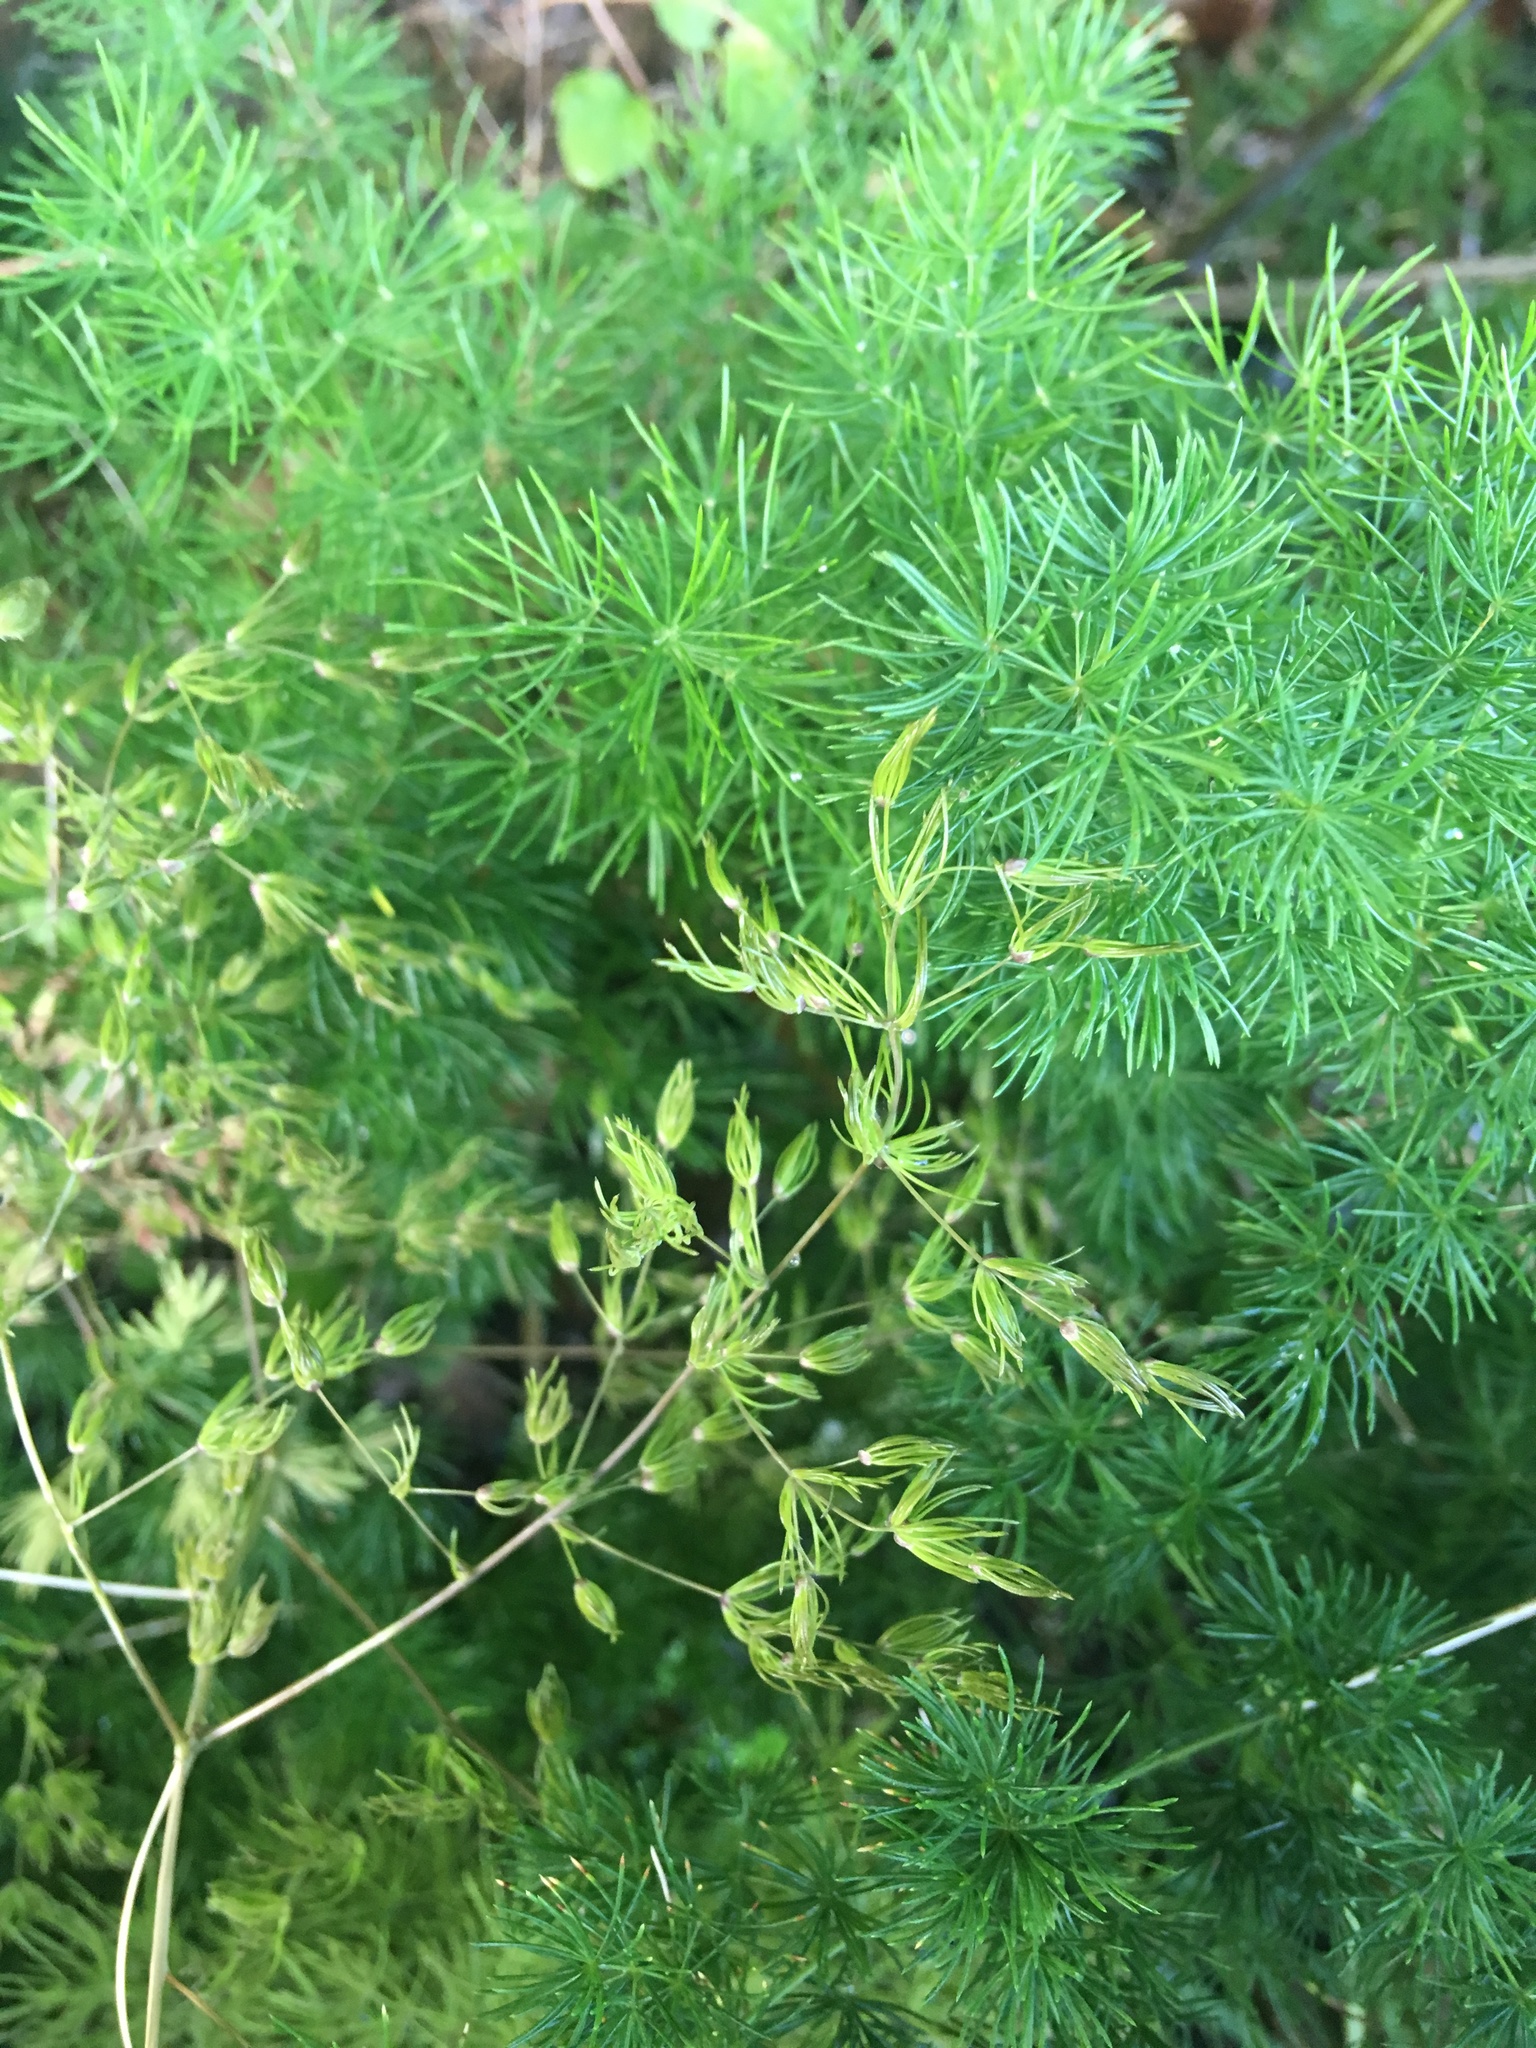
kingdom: Plantae
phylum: Tracheophyta
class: Liliopsida
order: Asparagales
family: Asparagaceae
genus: Asparagus
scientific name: Asparagus umbellatus
